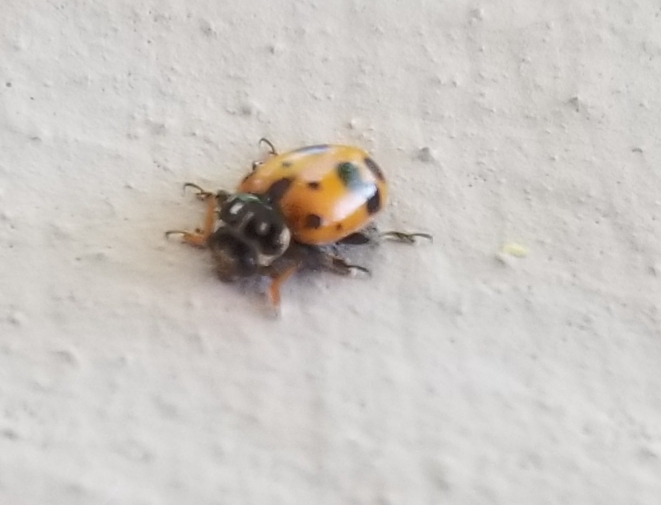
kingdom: Animalia
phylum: Arthropoda
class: Insecta
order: Coleoptera
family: Coccinellidae
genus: Hippodamia
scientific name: Hippodamia variegata
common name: Ladybird beetle
